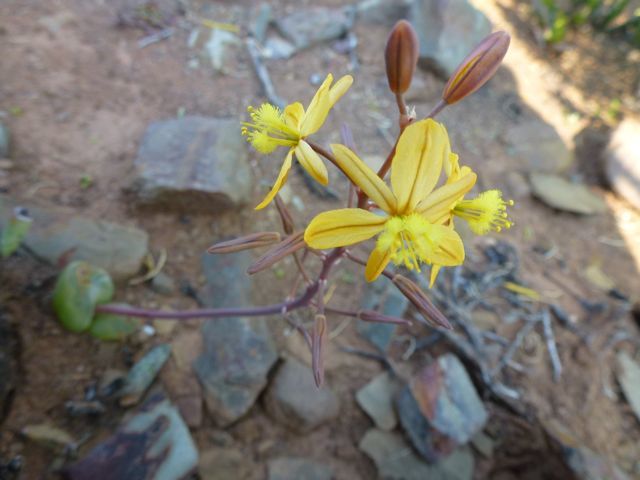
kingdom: Plantae
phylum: Tracheophyta
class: Liliopsida
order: Asparagales
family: Asphodelaceae
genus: Bulbine
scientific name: Bulbine mesembryanthoides
